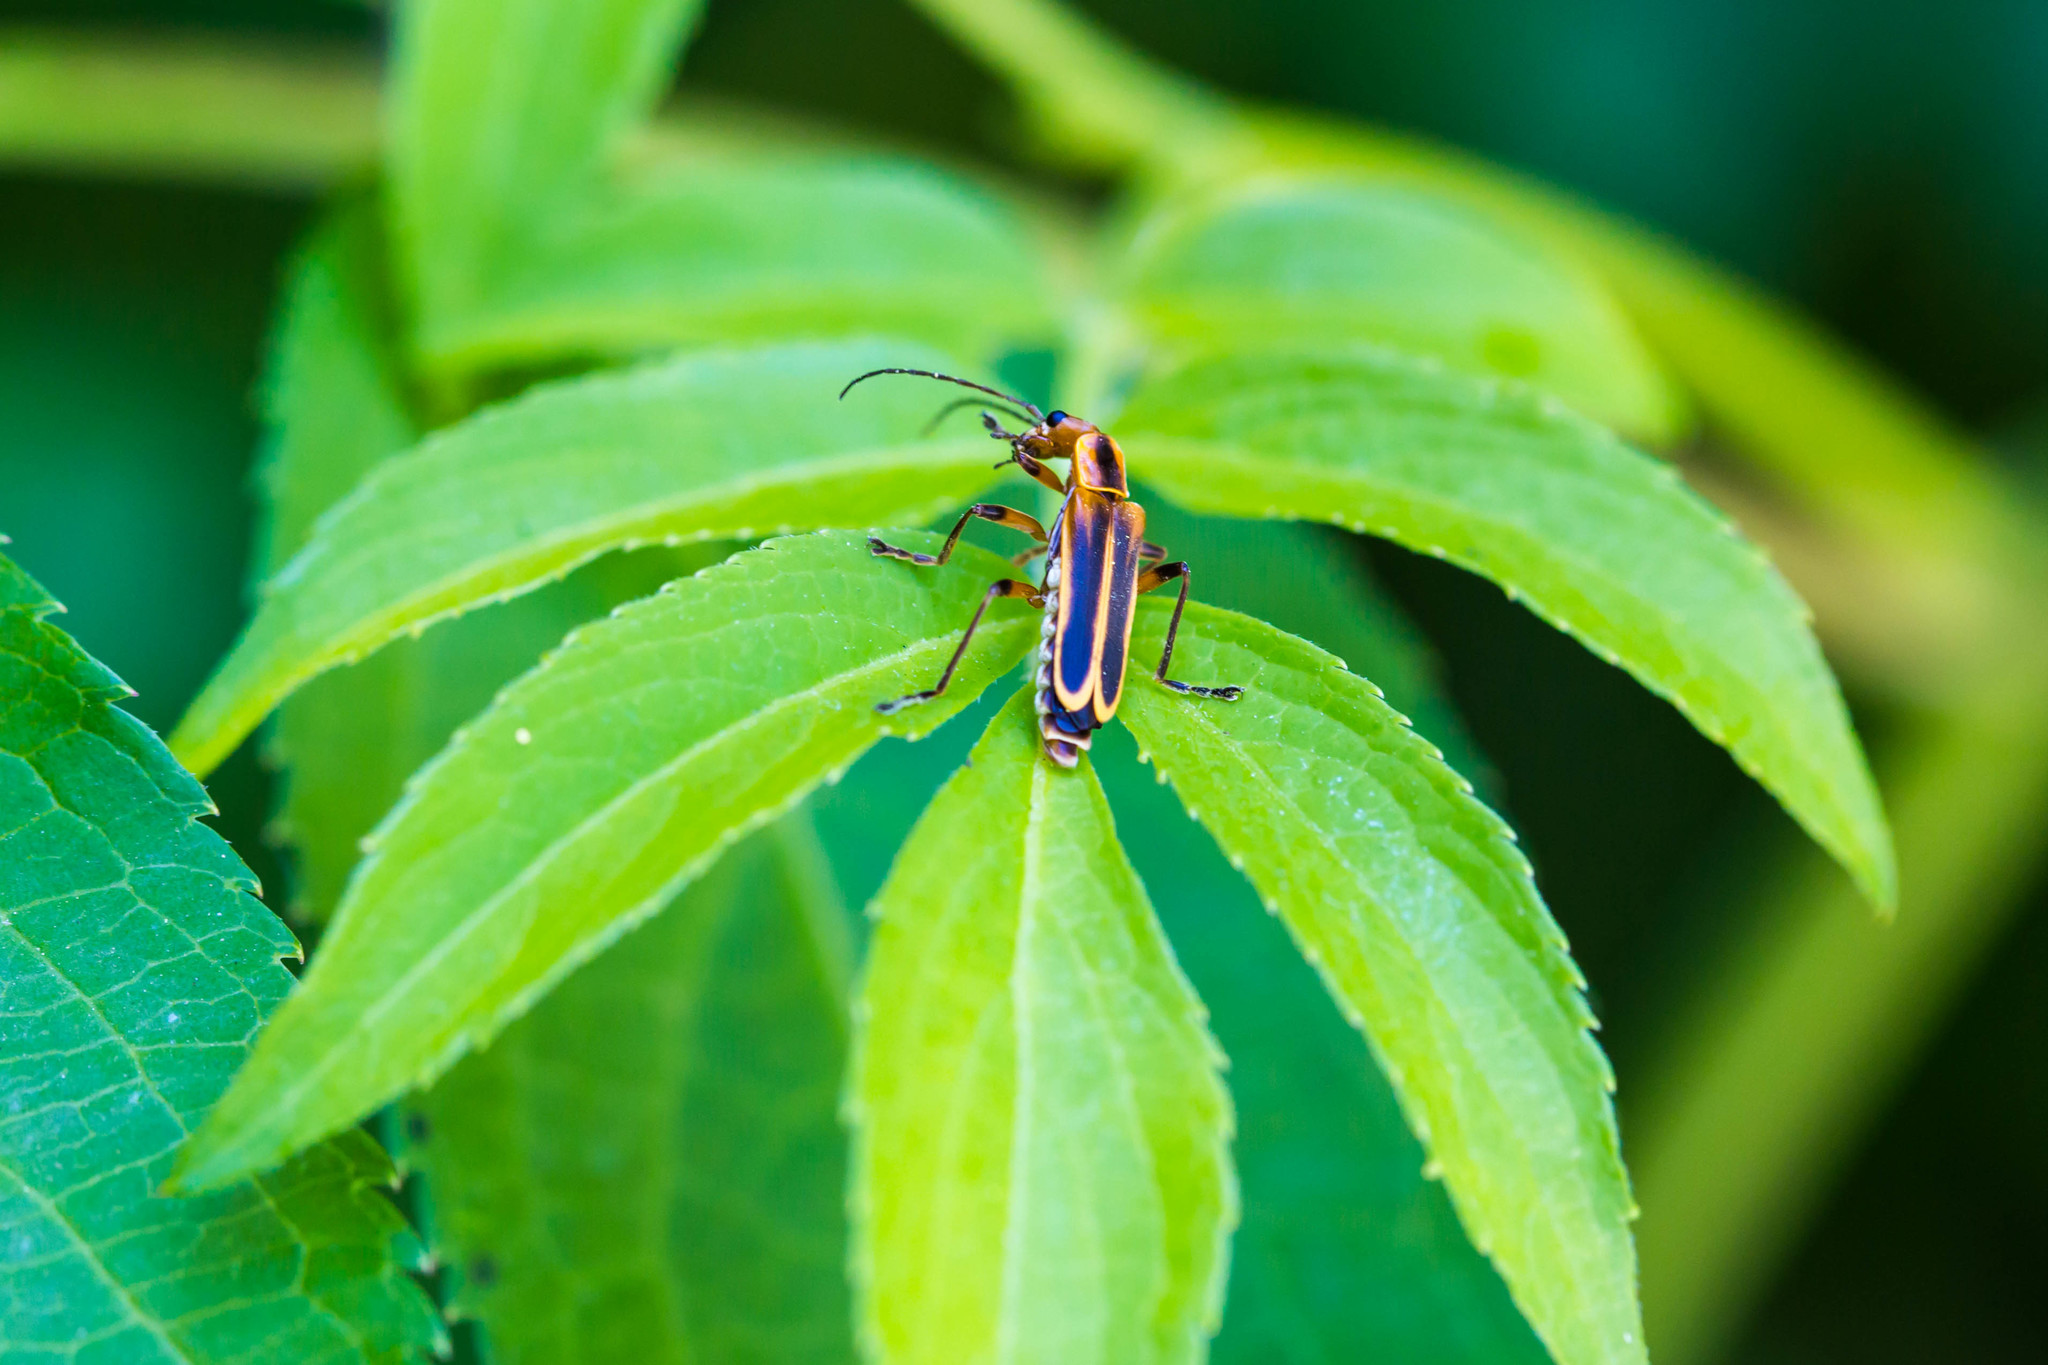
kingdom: Animalia
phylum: Arthropoda
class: Insecta
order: Coleoptera
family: Cantharidae
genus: Chauliognathus
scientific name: Chauliognathus marginatus
